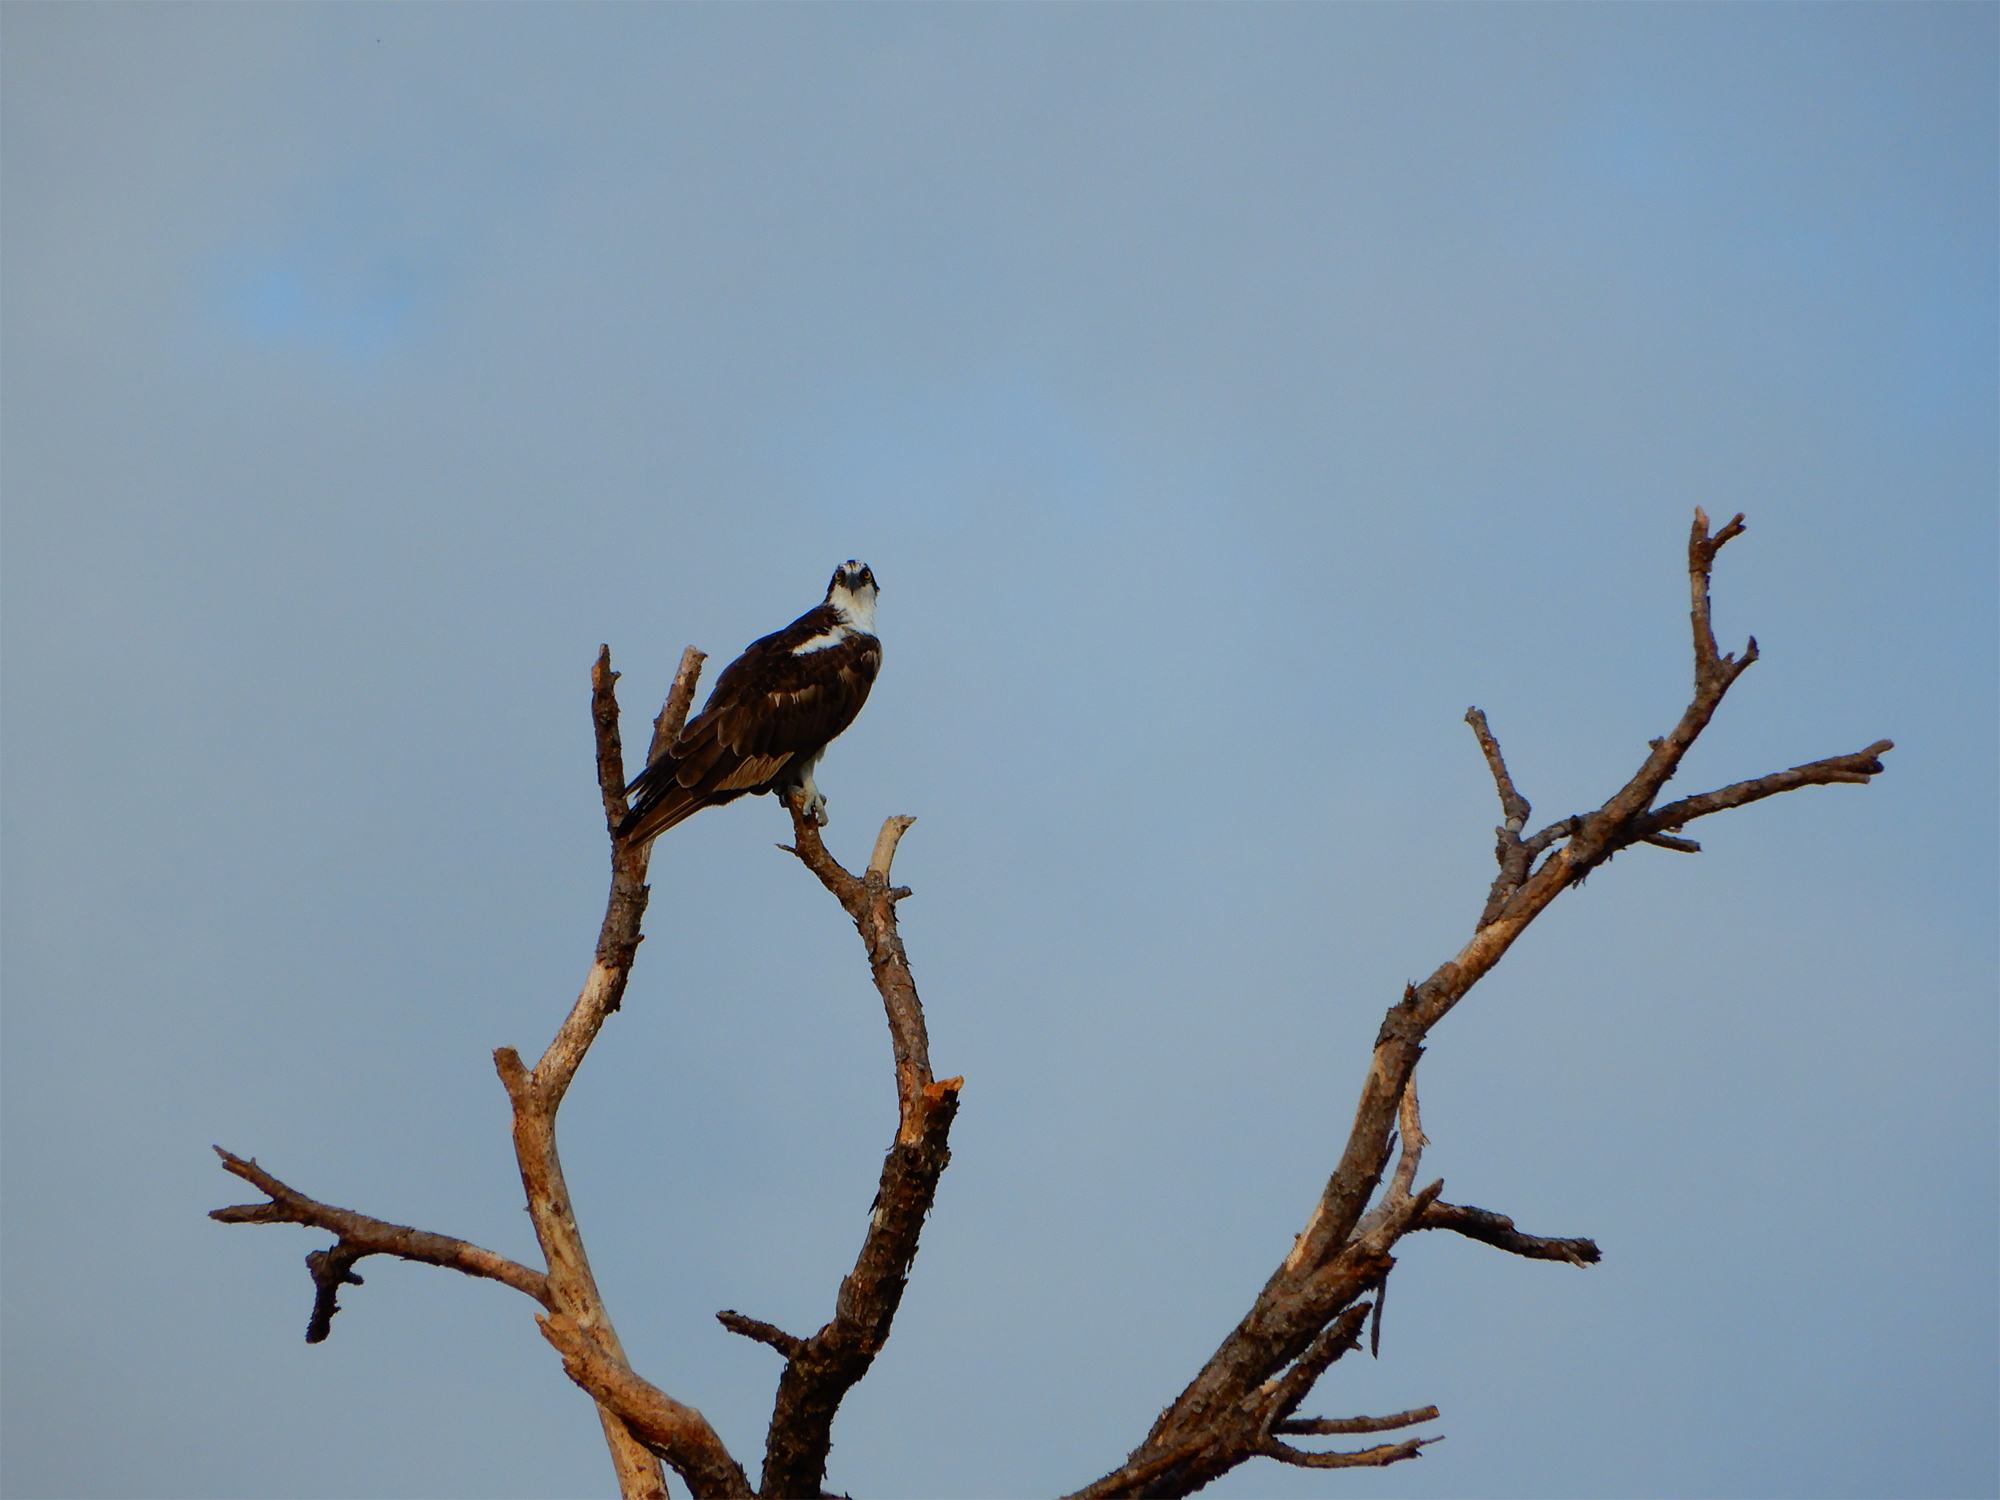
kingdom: Animalia
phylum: Chordata
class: Aves
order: Accipitriformes
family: Pandionidae
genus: Pandion
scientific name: Pandion haliaetus
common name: Osprey
